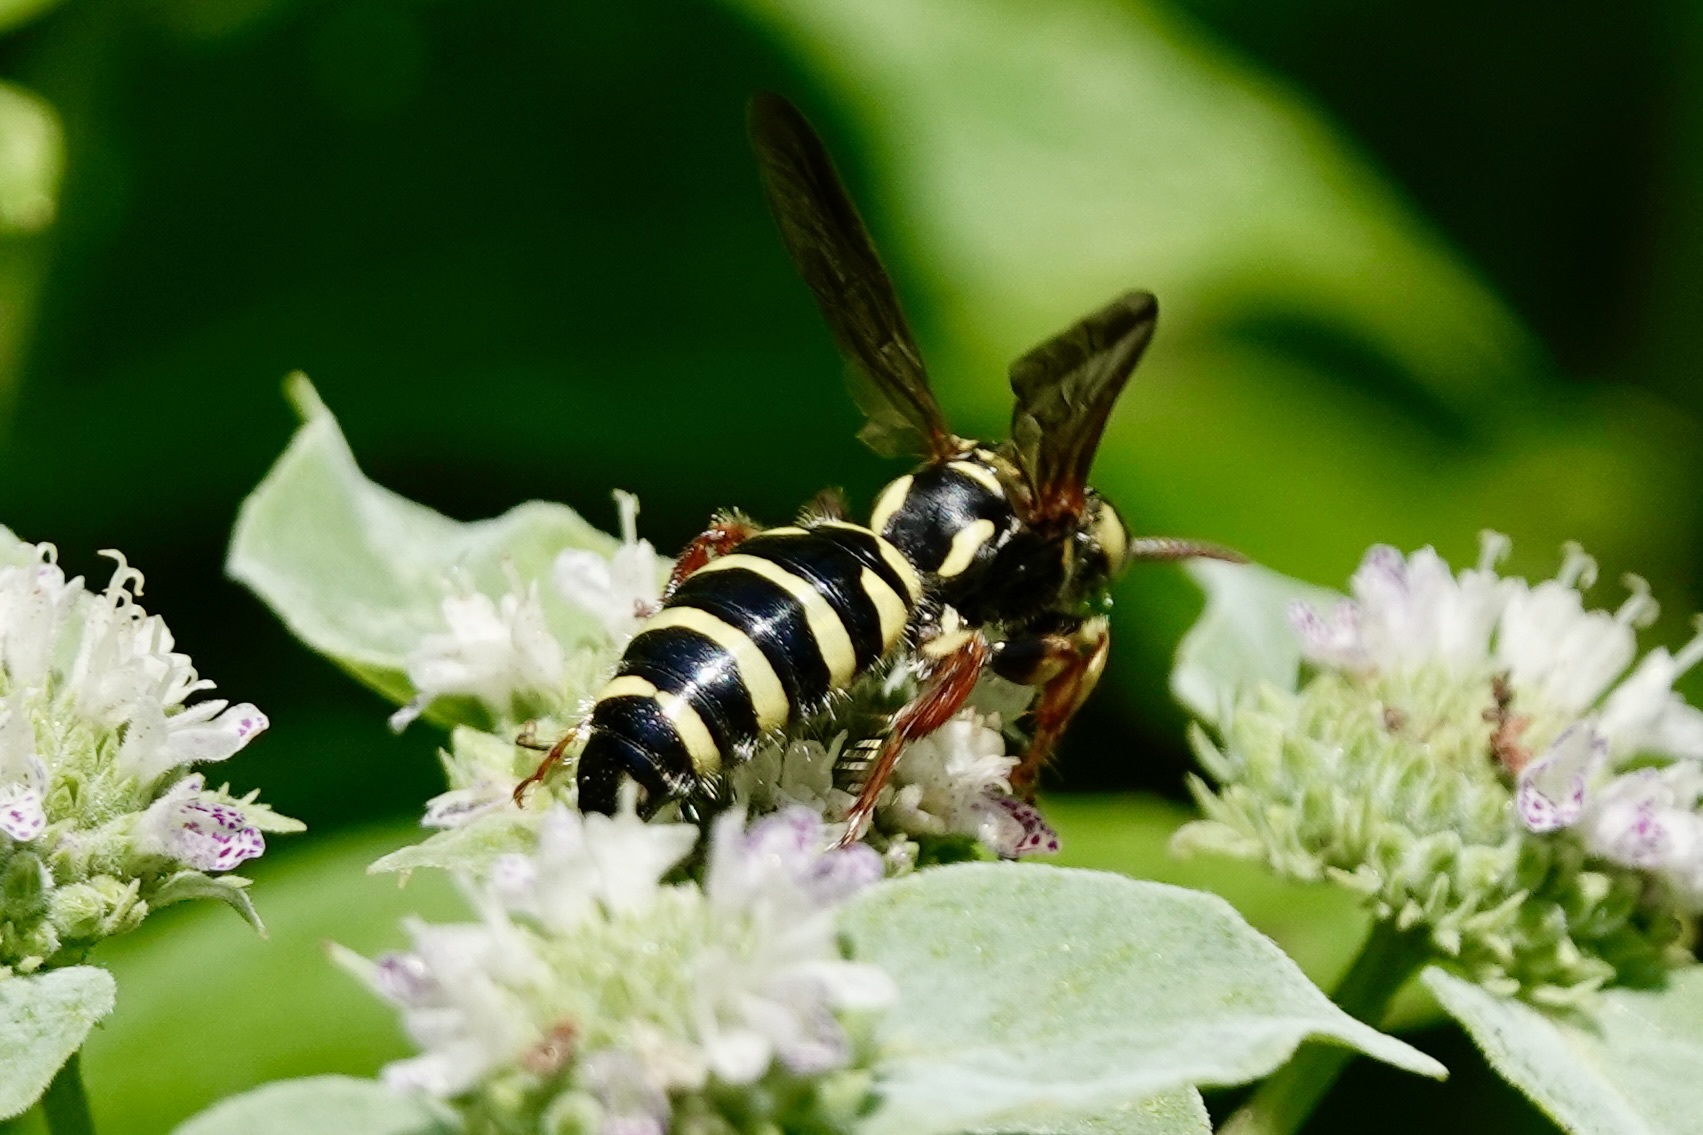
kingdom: Animalia
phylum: Arthropoda
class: Insecta
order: Hymenoptera
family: Tiphiidae
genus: Myzinum
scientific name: Myzinum quinquecinctum
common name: Five-banded thynnid wasp
